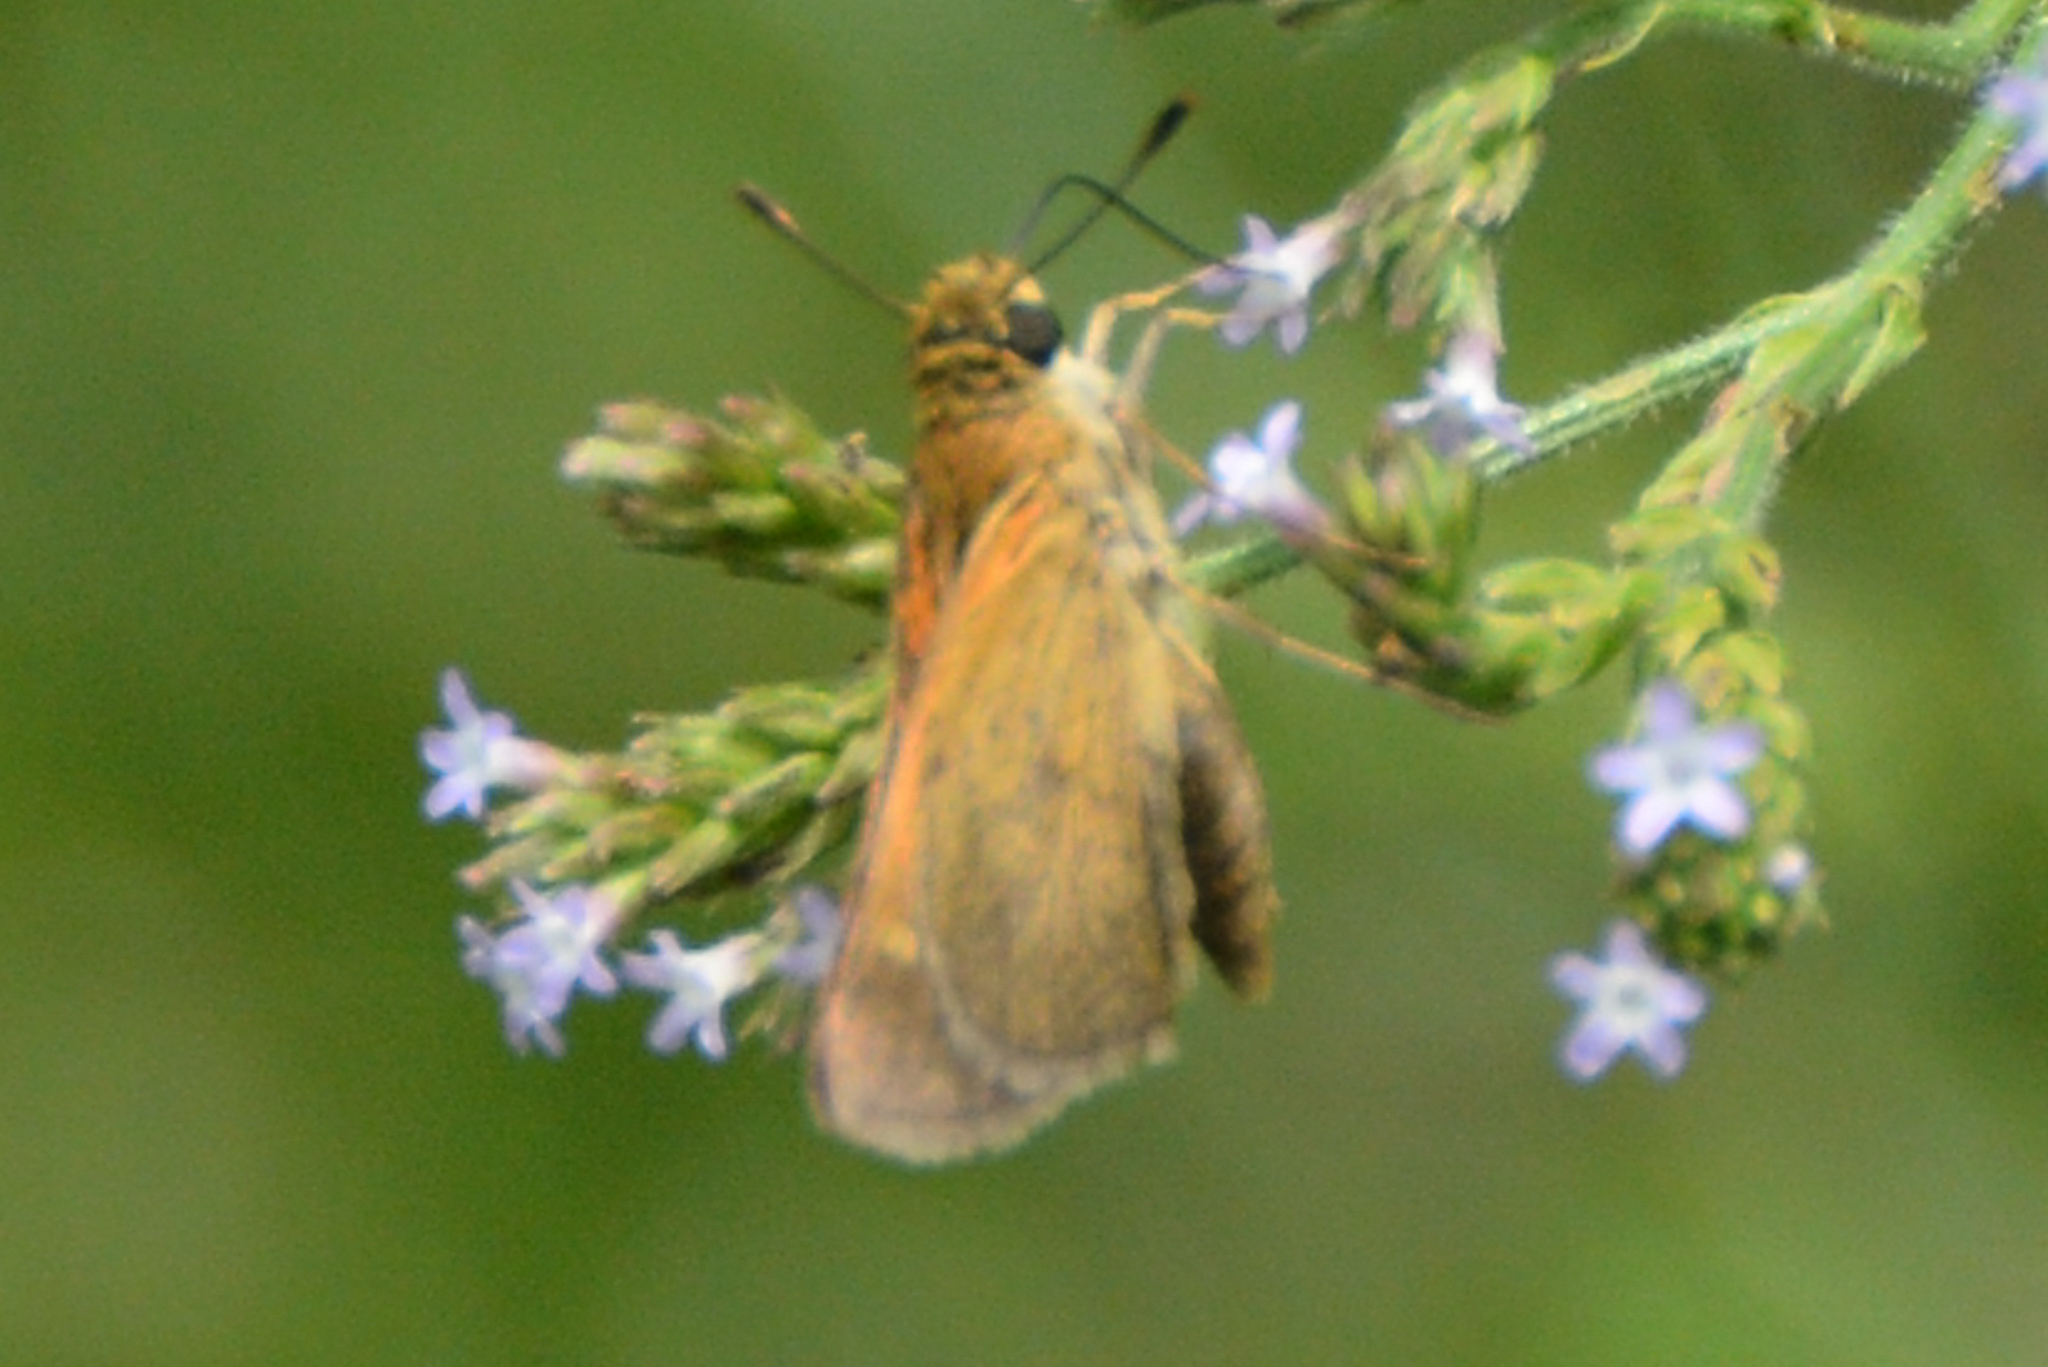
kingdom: Animalia
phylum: Arthropoda
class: Insecta
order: Lepidoptera
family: Hesperiidae
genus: Polites
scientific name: Polites themistocles
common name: Tawny-edged skipper
